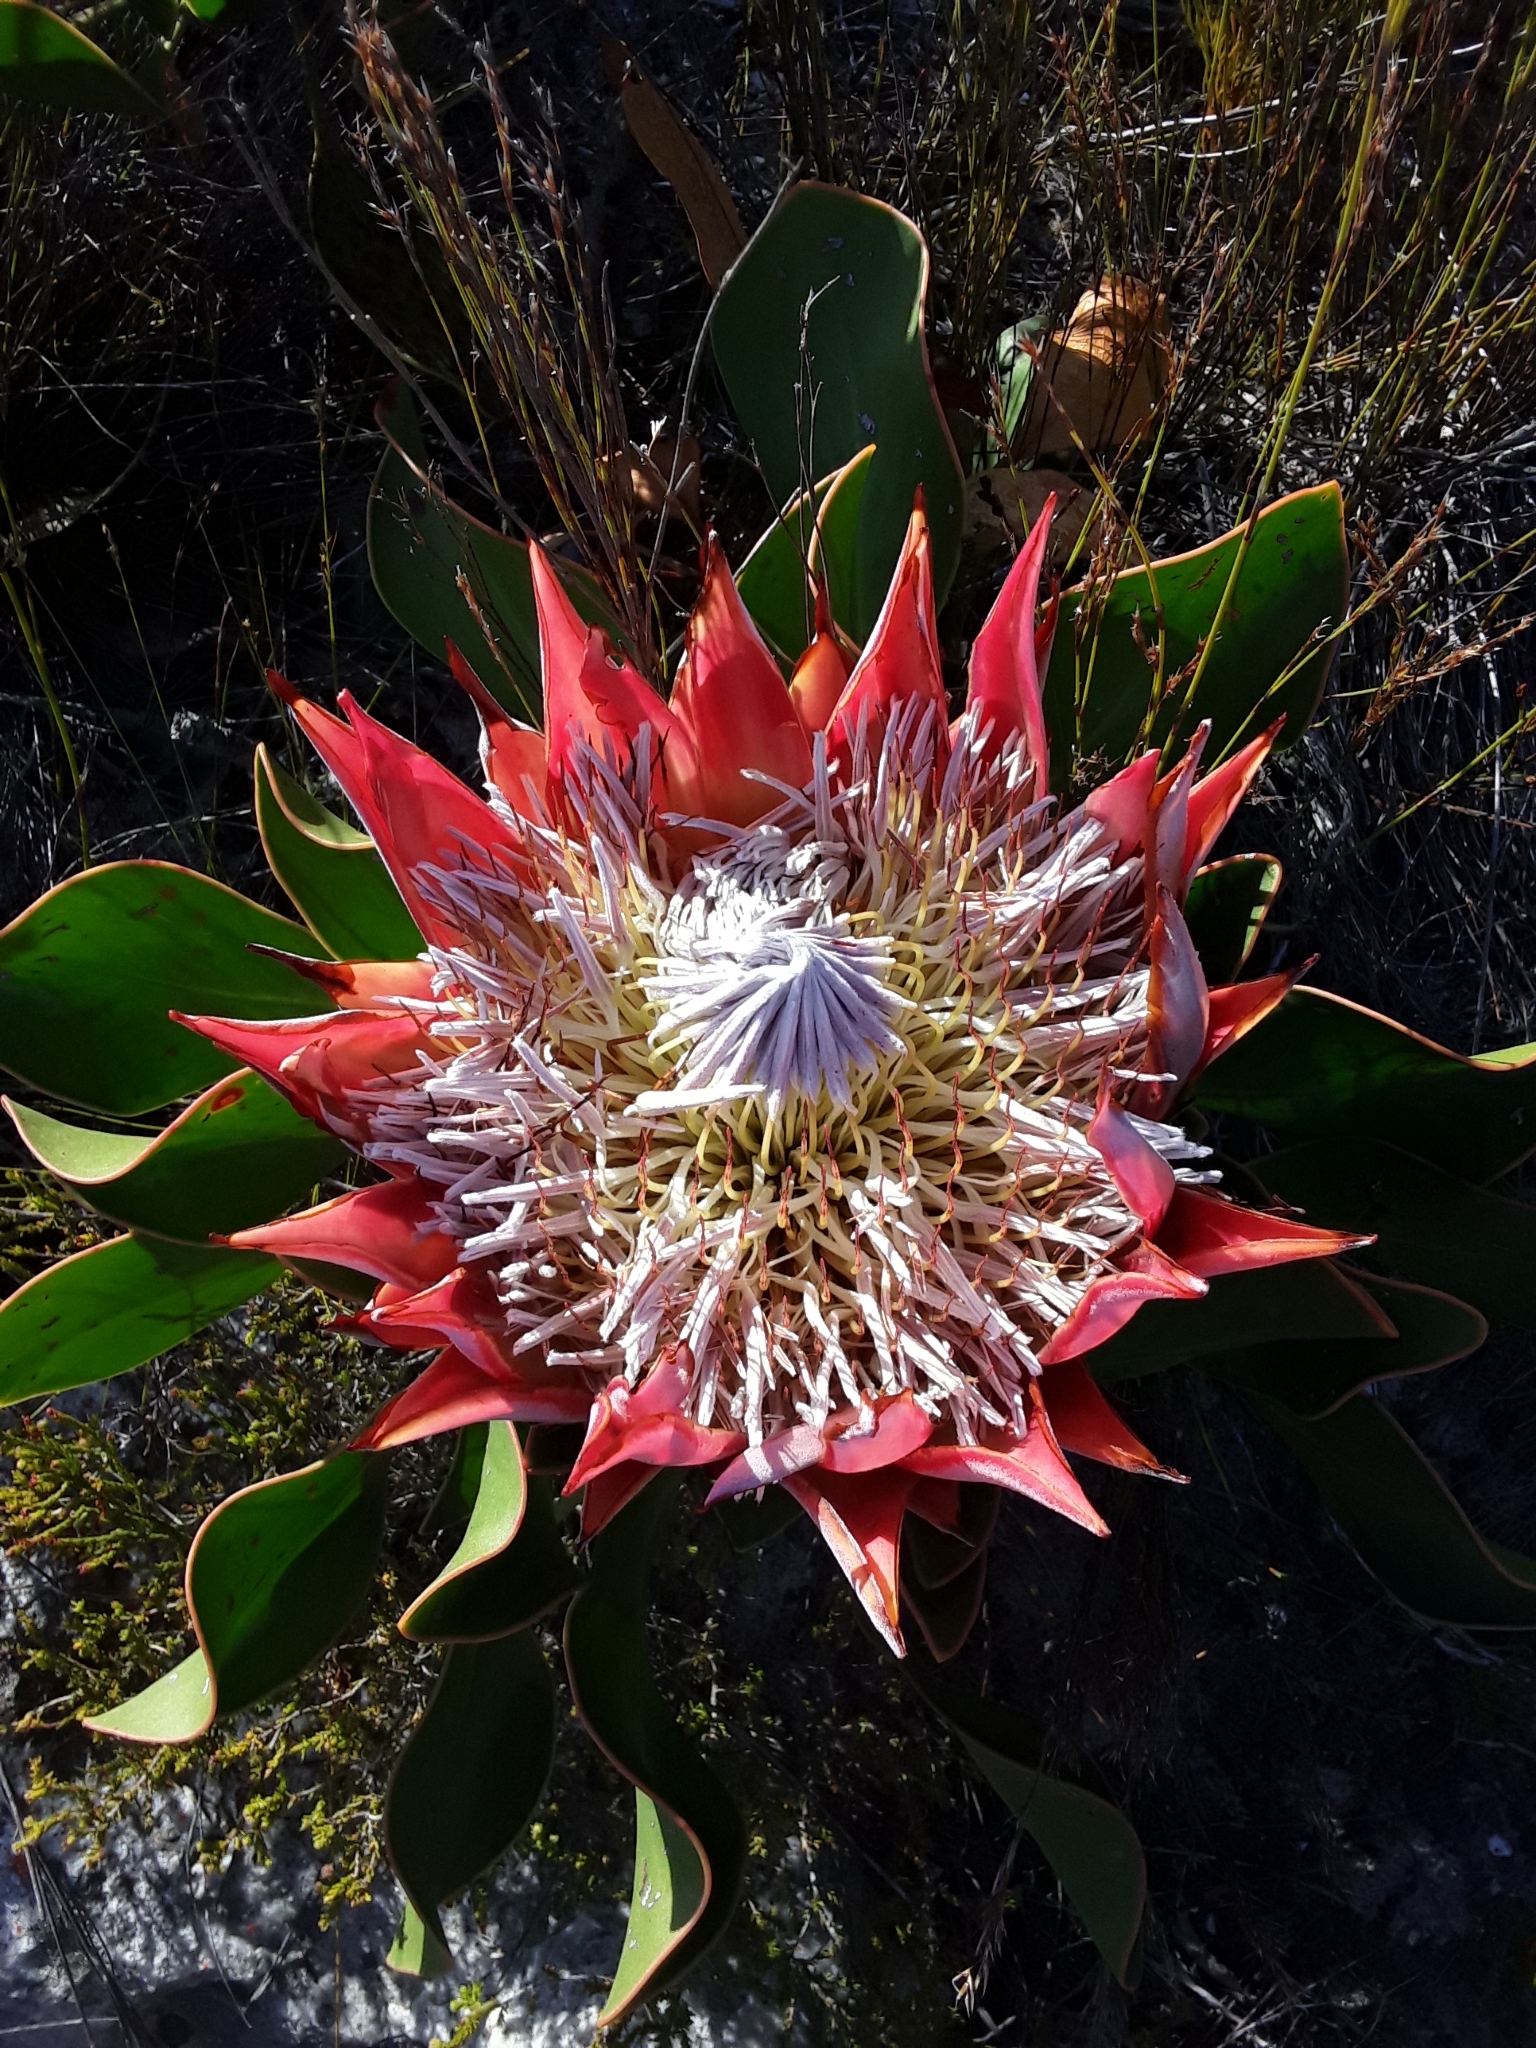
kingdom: Plantae
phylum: Tracheophyta
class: Magnoliopsida
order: Proteales
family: Proteaceae
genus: Protea
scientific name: Protea cynaroides
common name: King protea
